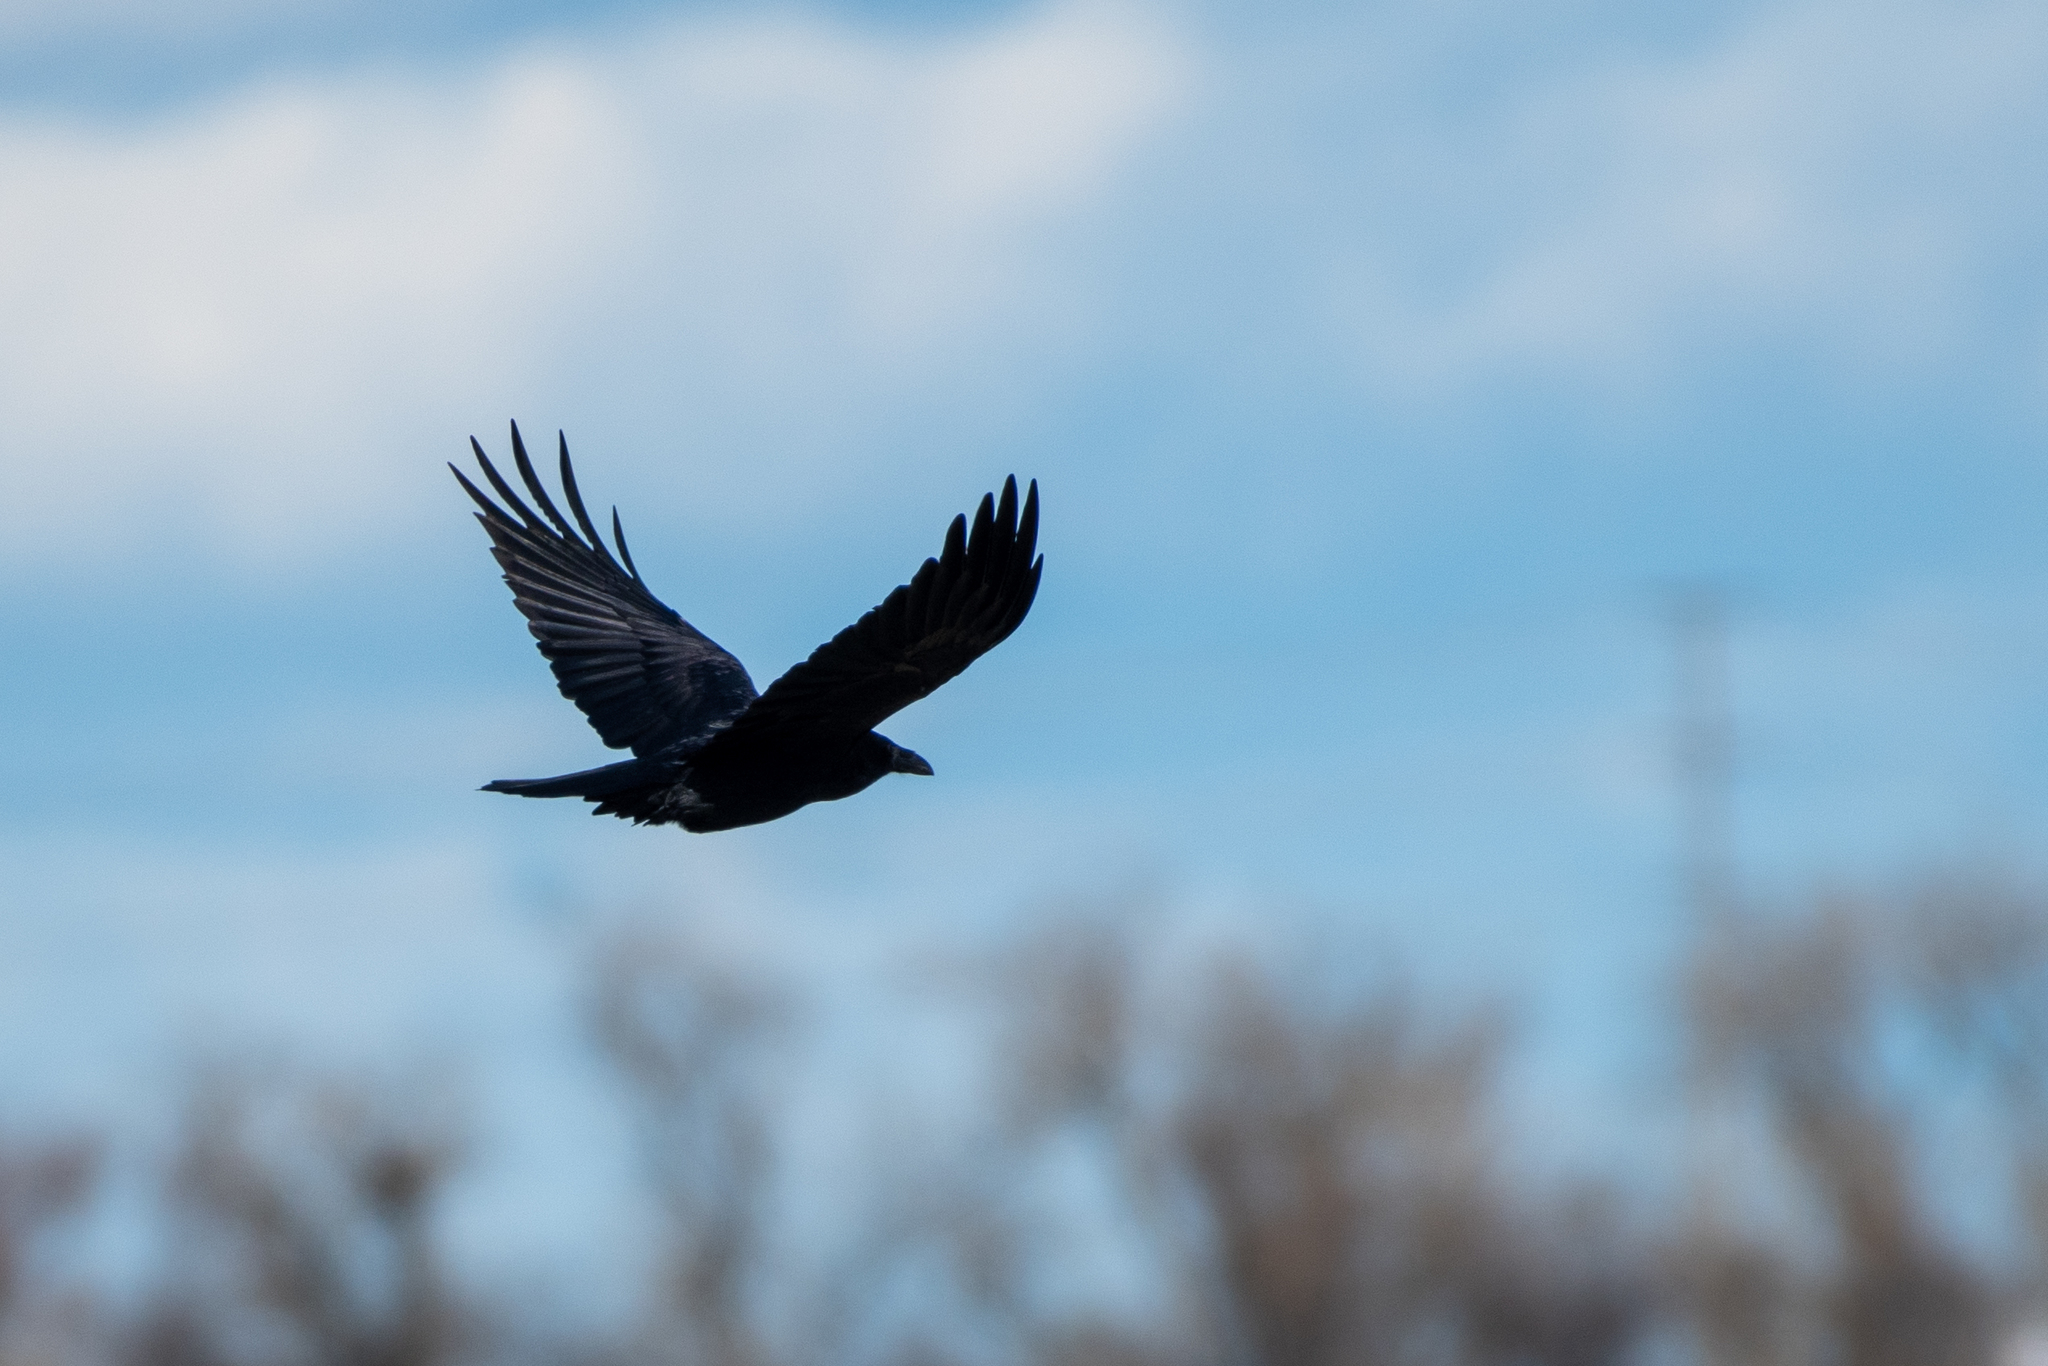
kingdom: Animalia
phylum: Chordata
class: Aves
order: Passeriformes
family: Corvidae
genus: Corvus
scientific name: Corvus corax
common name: Common raven
